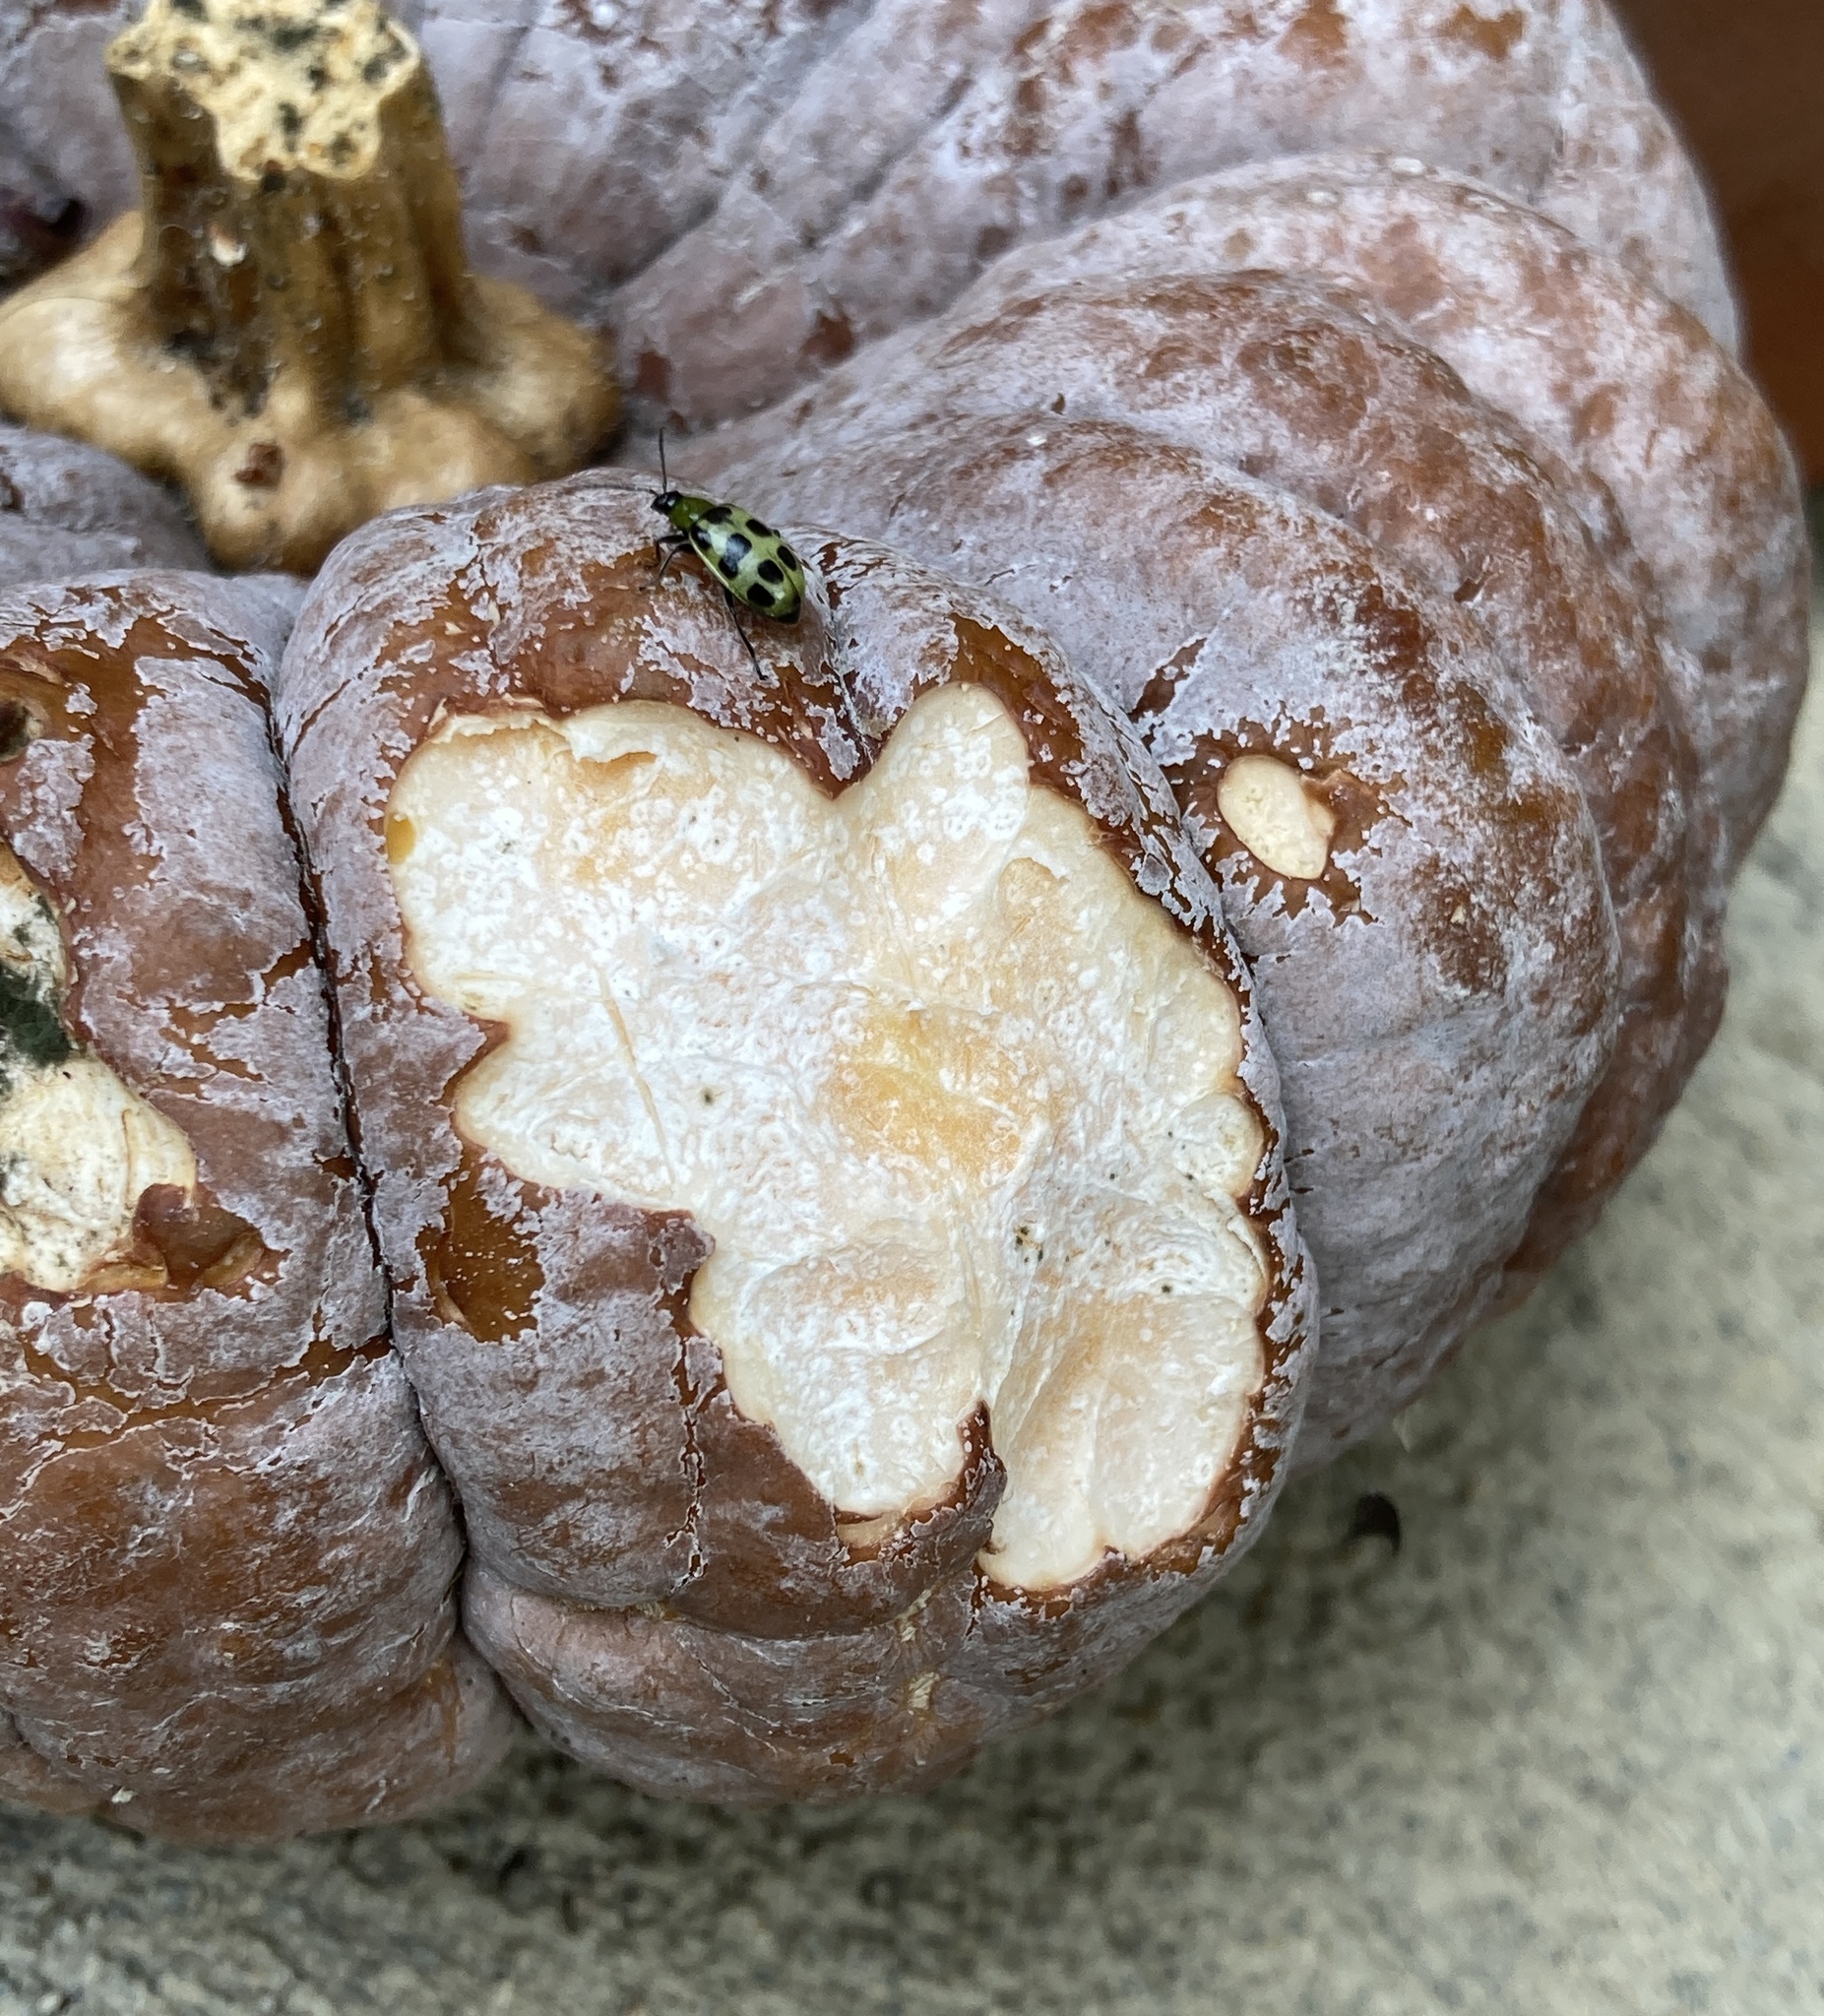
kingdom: Animalia
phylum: Arthropoda
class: Insecta
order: Coleoptera
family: Chrysomelidae
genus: Diabrotica
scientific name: Diabrotica undecimpunctata
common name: Spotted cucumber beetle
